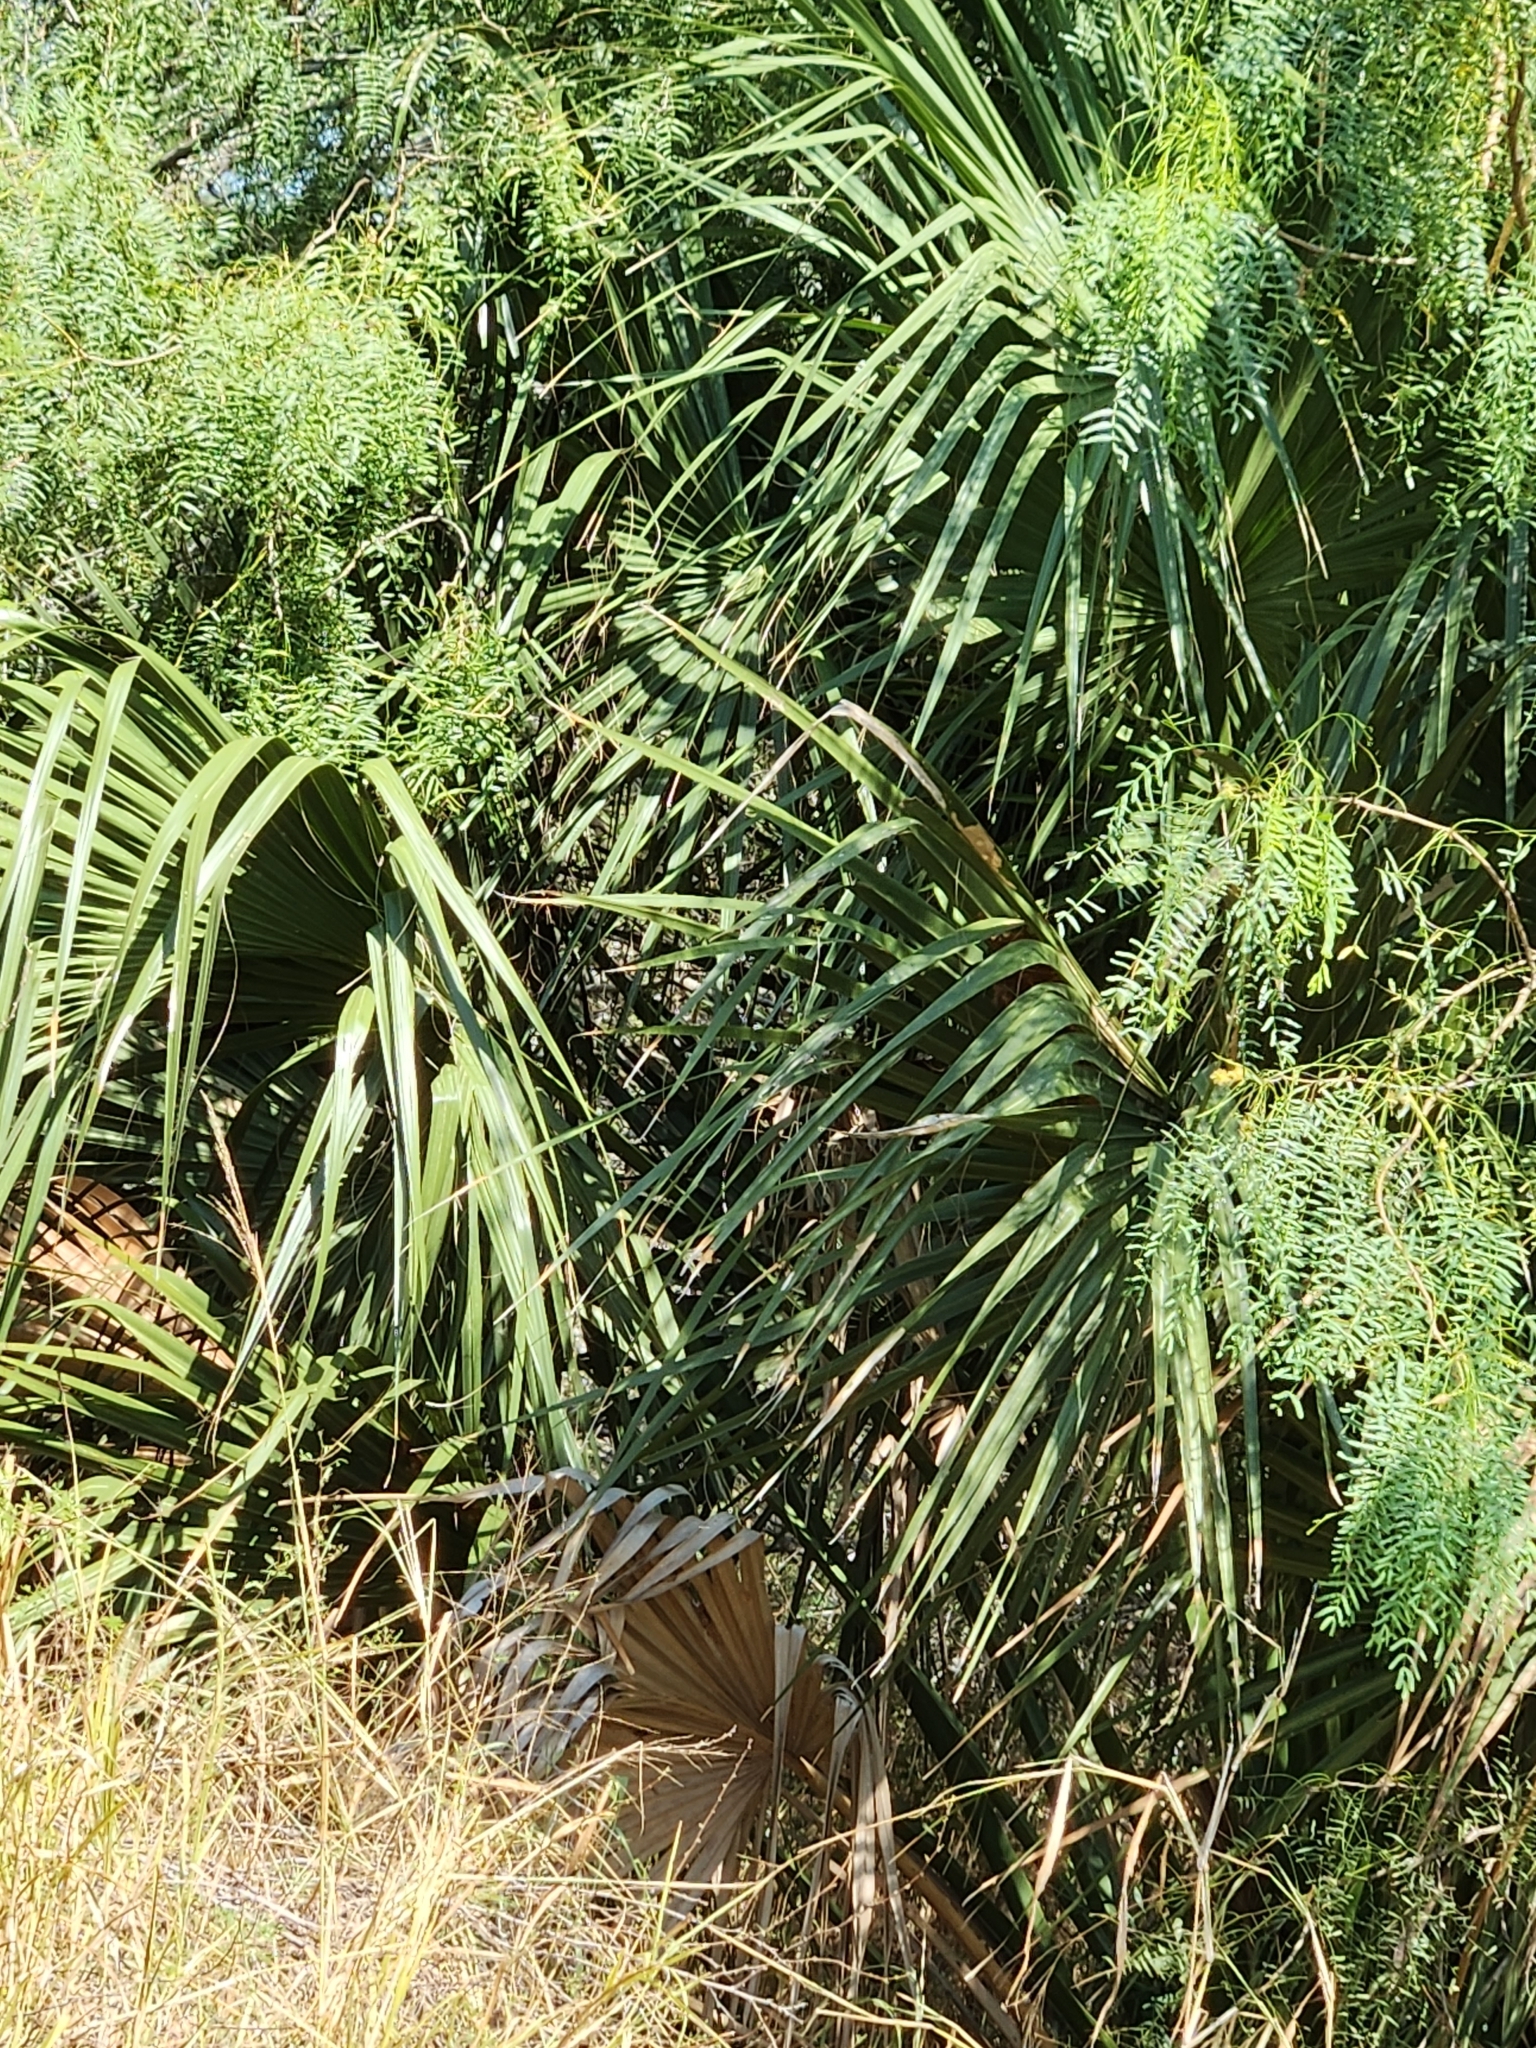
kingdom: Plantae
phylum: Tracheophyta
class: Liliopsida
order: Arecales
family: Arecaceae
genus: Sabal
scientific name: Sabal mexicana
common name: Texas palmetto
